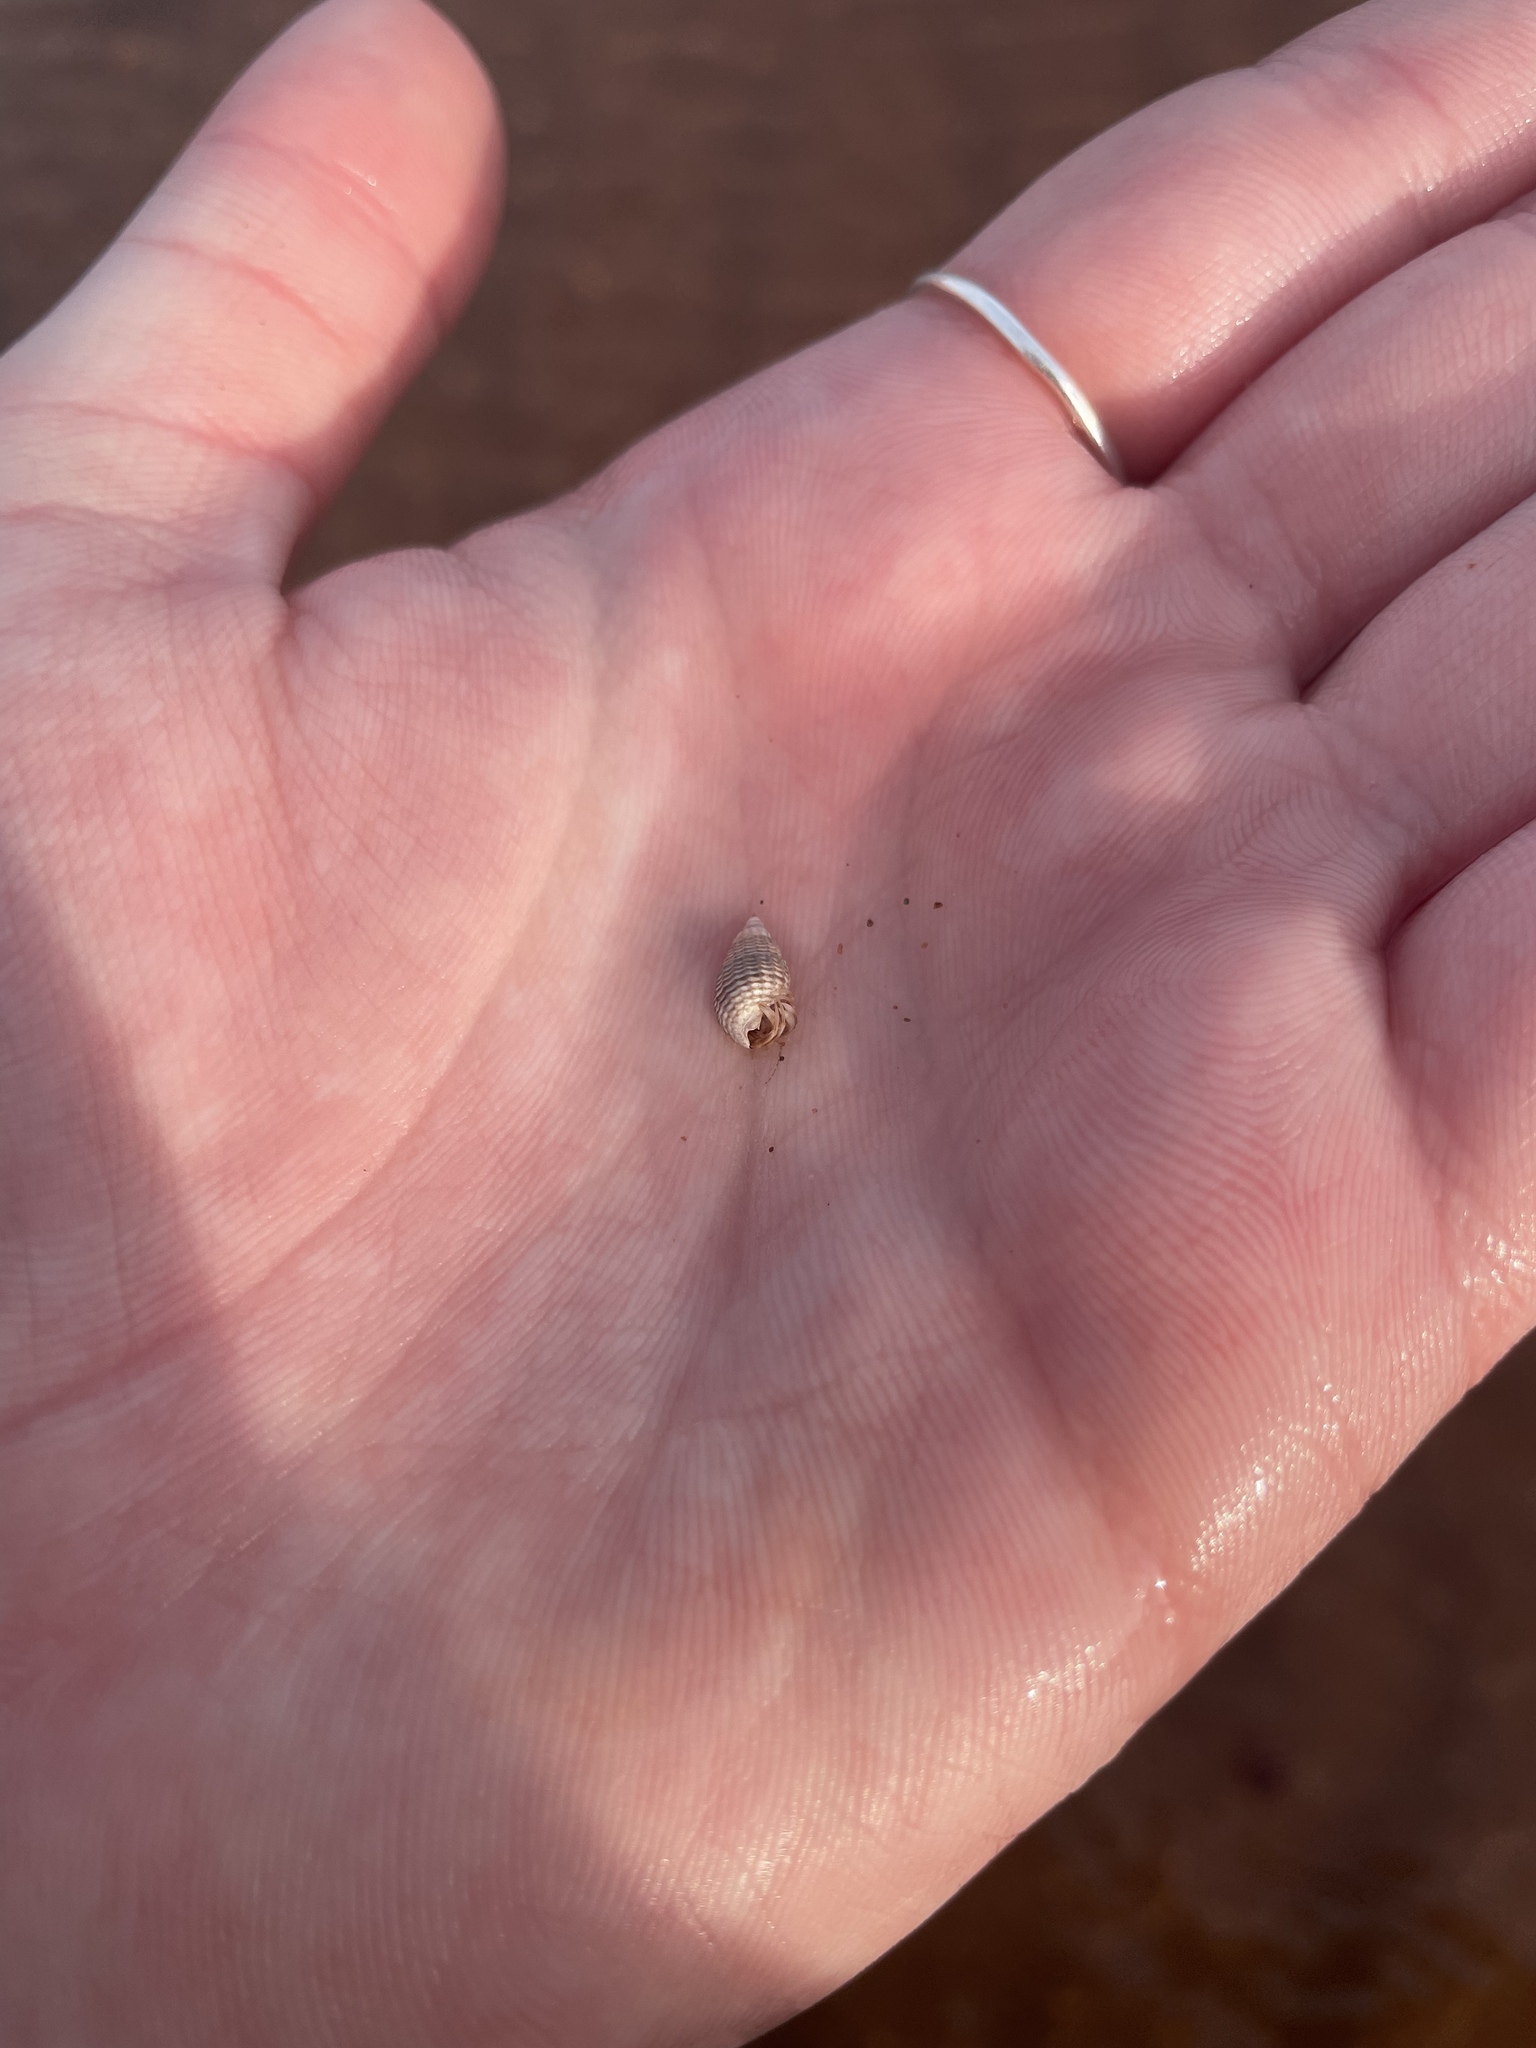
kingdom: Animalia
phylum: Mollusca
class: Gastropoda
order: Neogastropoda
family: Nassariidae
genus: Ilyanassa
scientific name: Ilyanassa trivittata
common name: Three-line mudsnail
